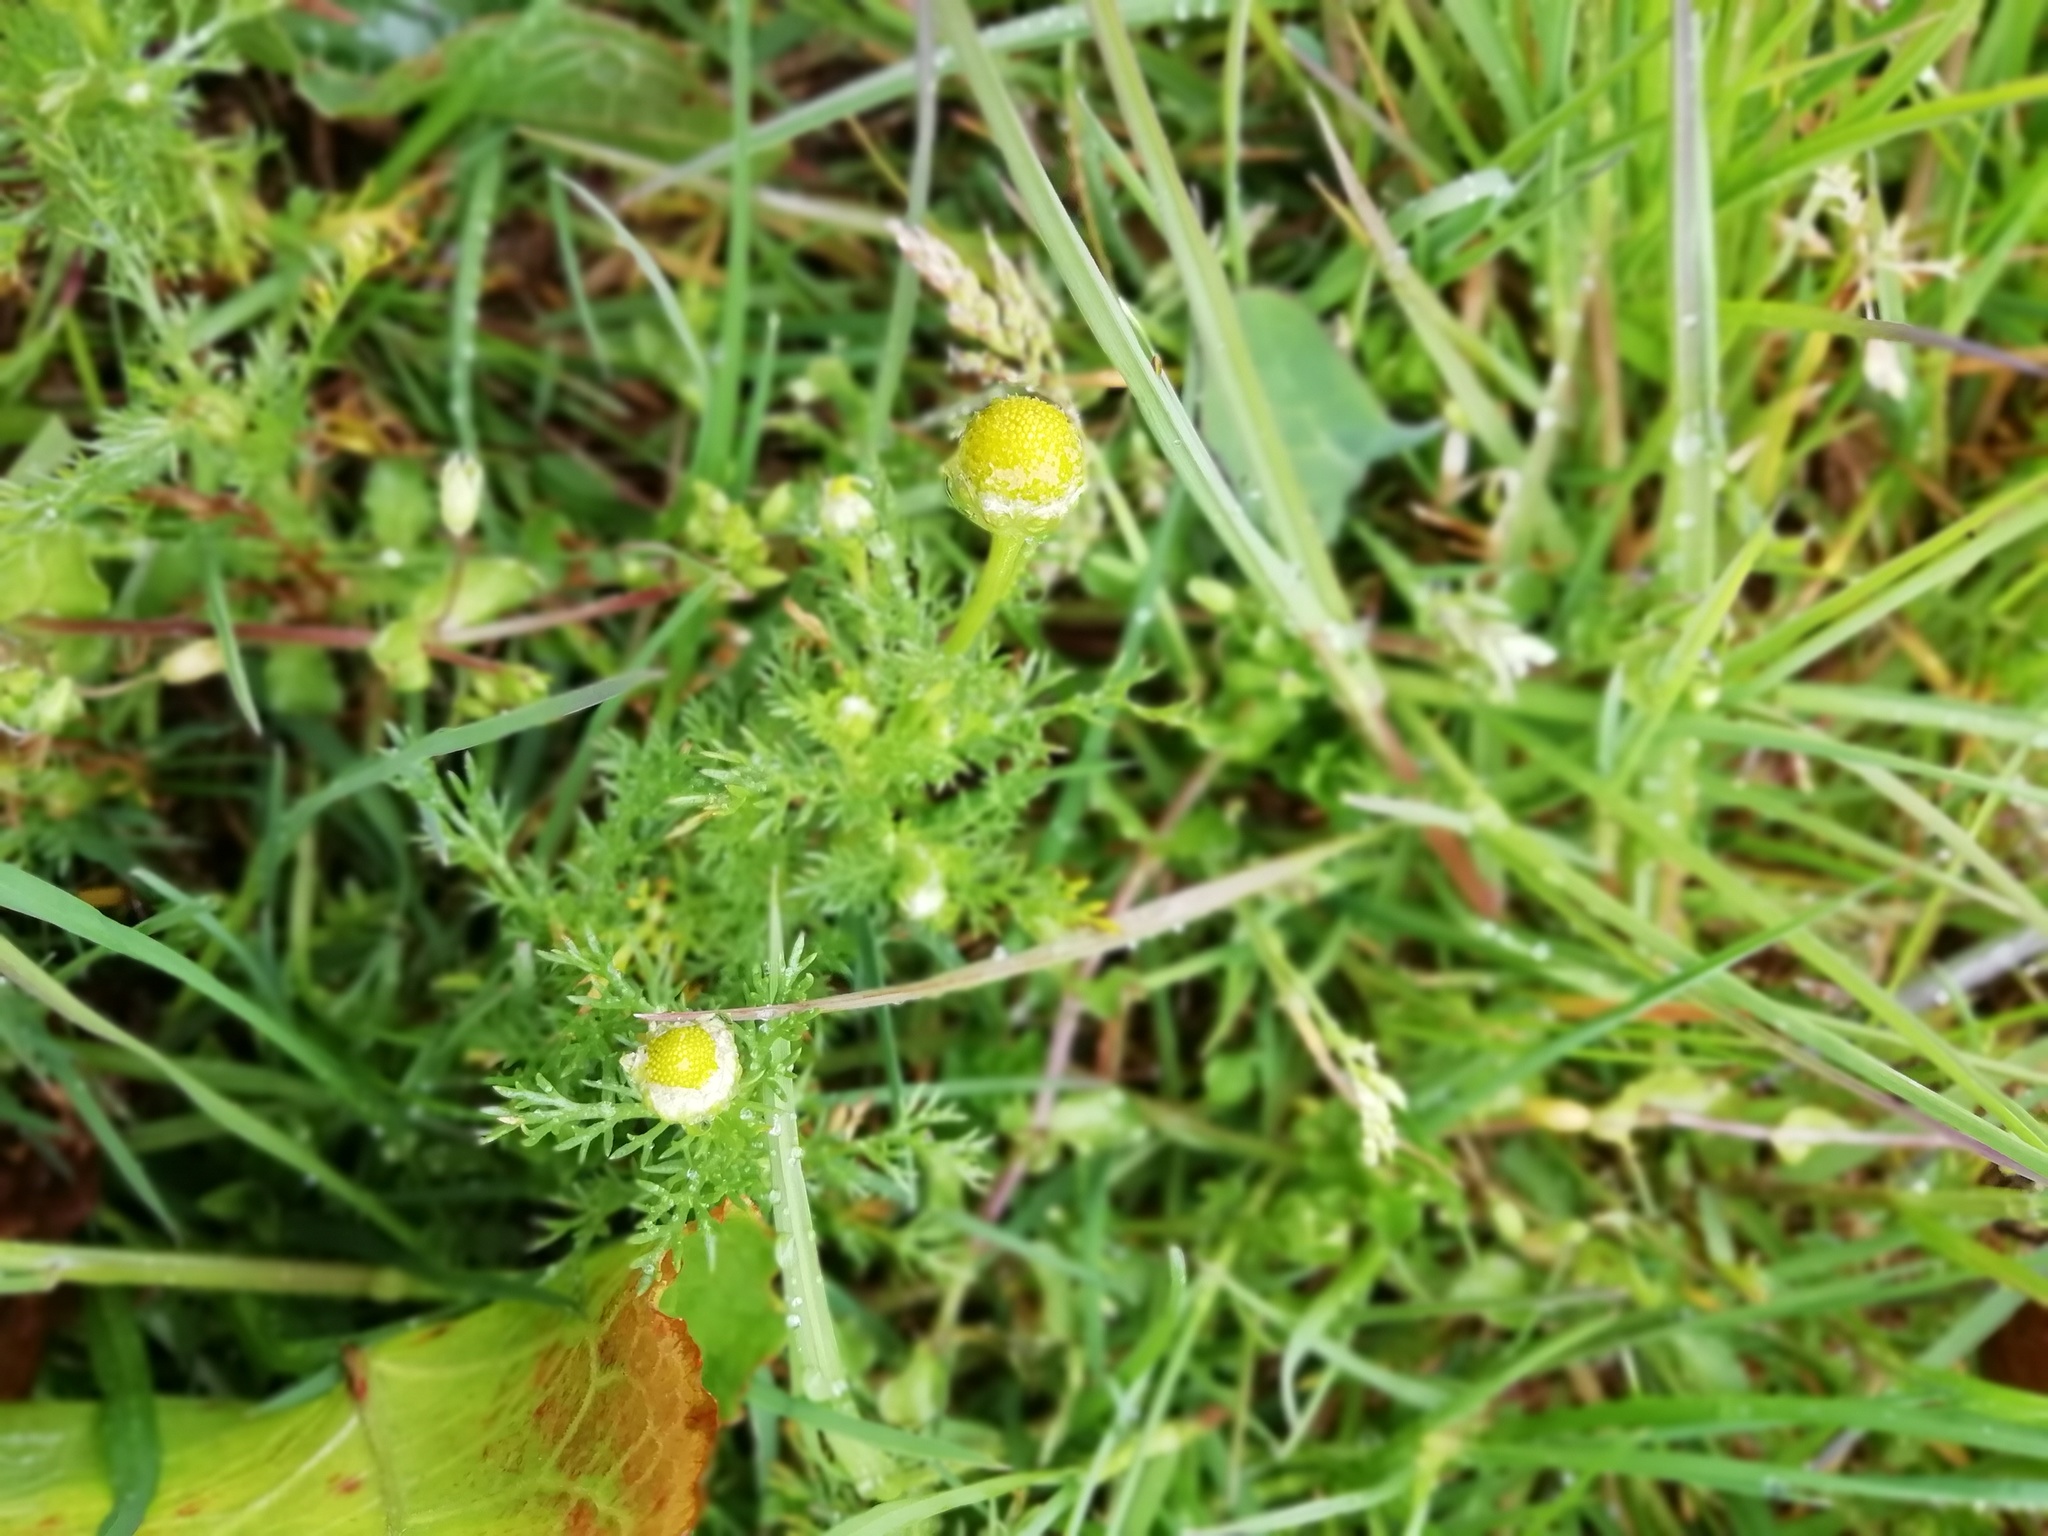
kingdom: Plantae
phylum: Tracheophyta
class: Magnoliopsida
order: Asterales
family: Asteraceae
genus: Matricaria
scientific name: Matricaria discoidea
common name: Disc mayweed
